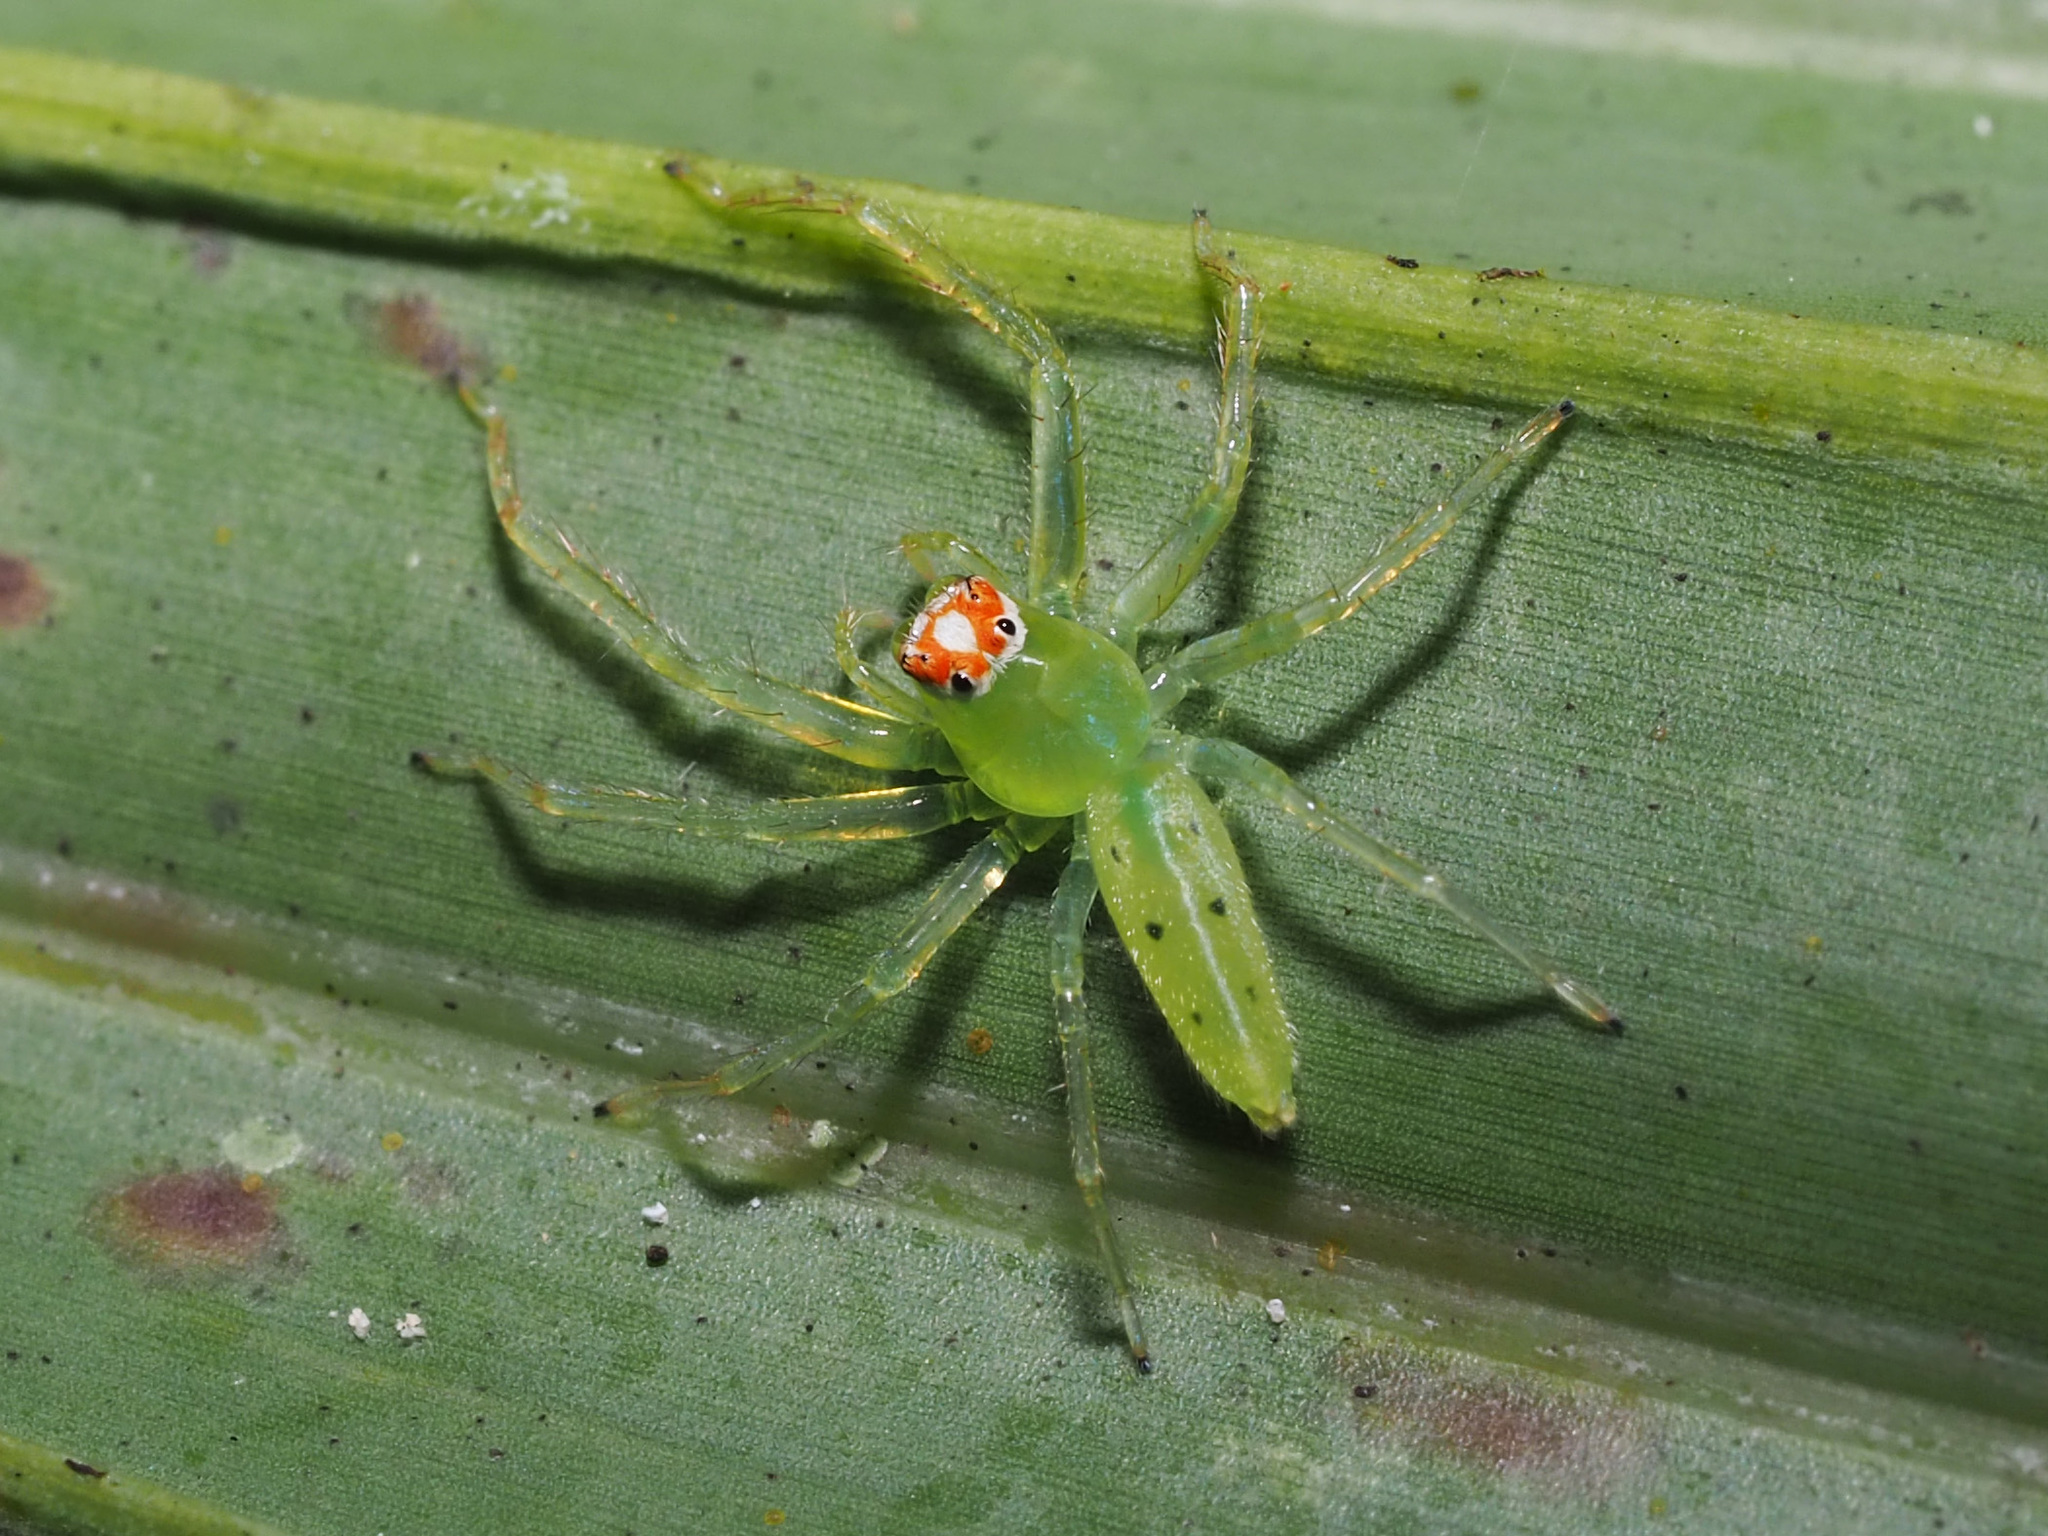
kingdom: Animalia
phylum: Arthropoda
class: Arachnida
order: Araneae
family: Salticidae
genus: Lyssomanes
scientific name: Lyssomanes viridis
